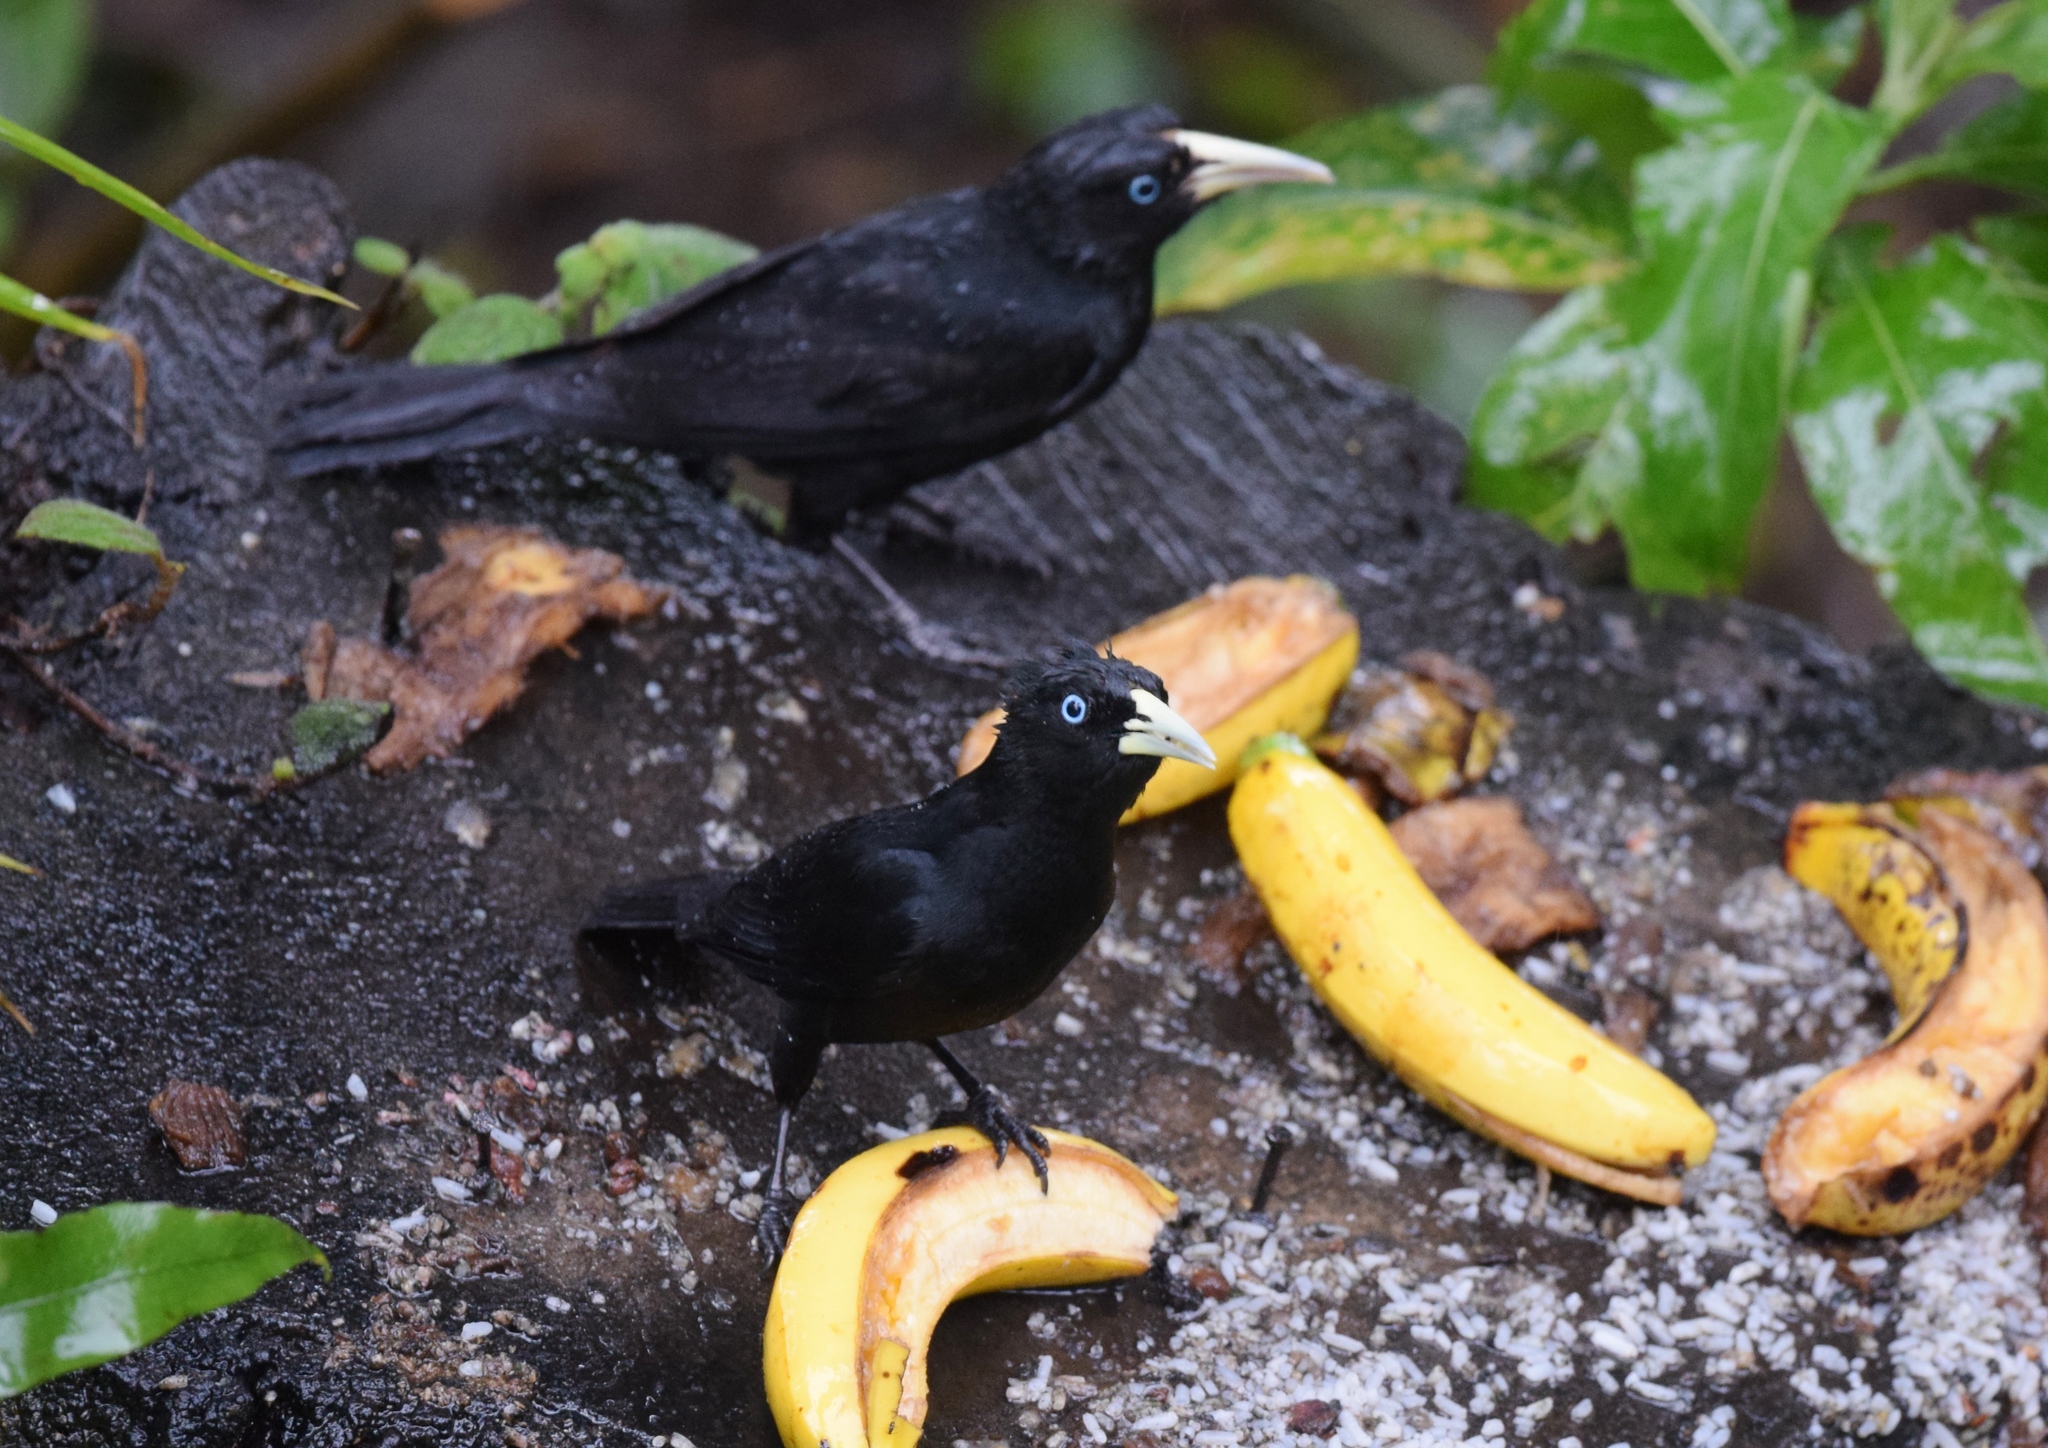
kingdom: Animalia
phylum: Chordata
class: Aves
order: Passeriformes
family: Icteridae
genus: Cacicus
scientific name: Cacicus uropygialis
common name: Scarlet-rumped cacique
